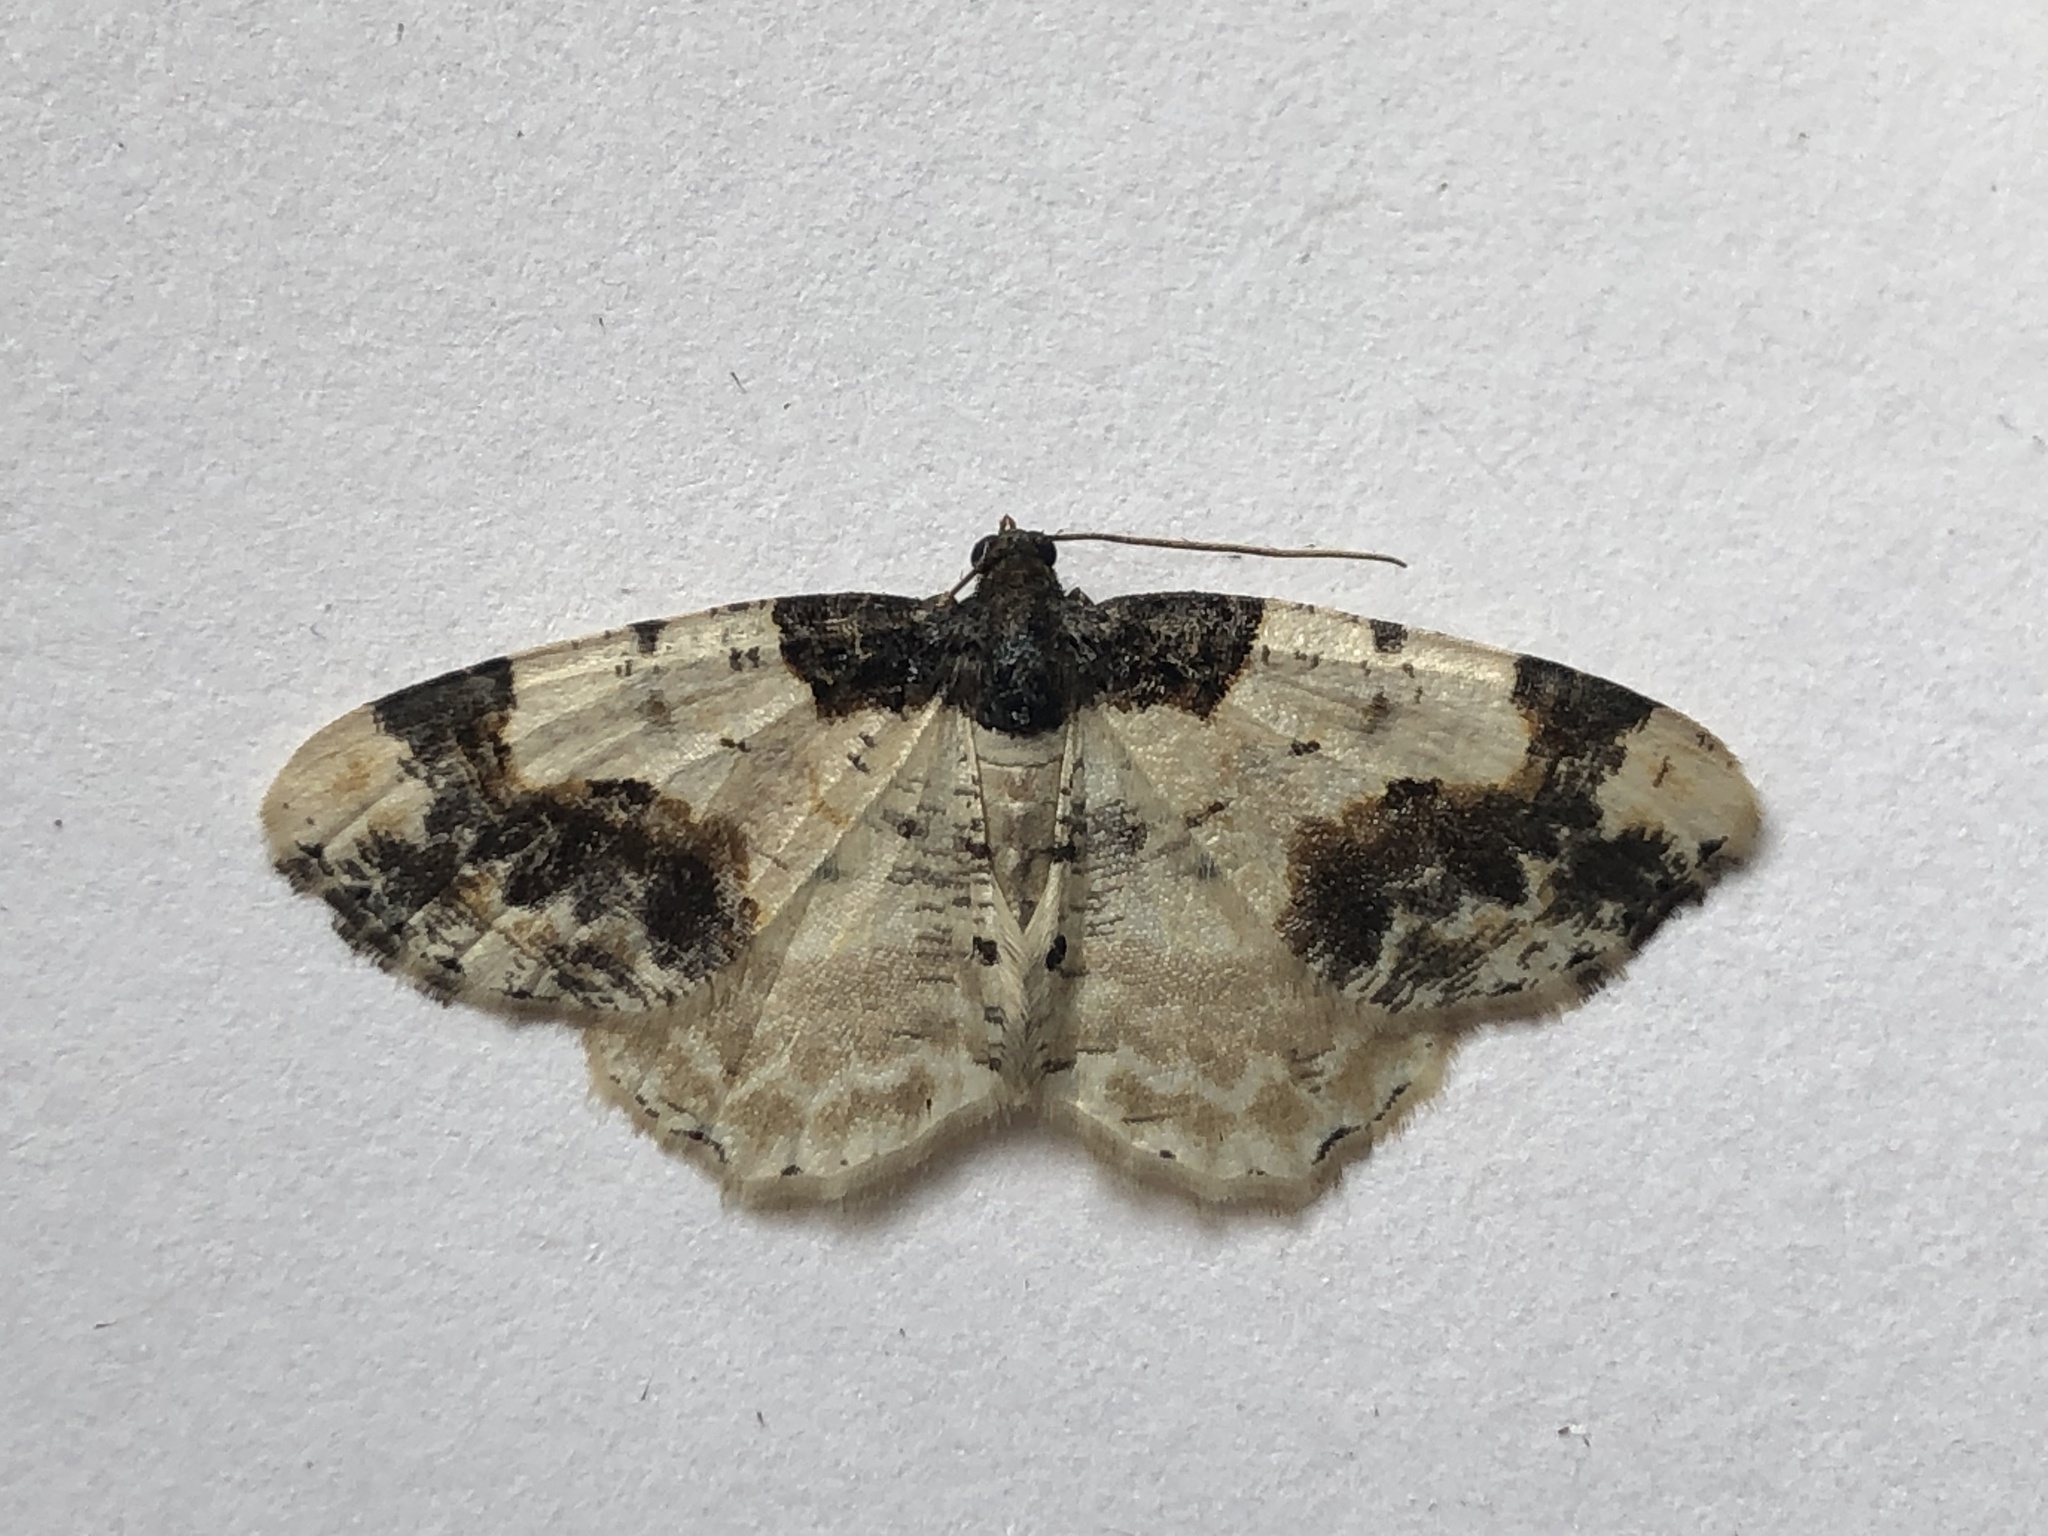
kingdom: Animalia
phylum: Arthropoda
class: Insecta
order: Lepidoptera
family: Geometridae
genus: Ligdia
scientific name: Ligdia adustata
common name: Scorched carpet
